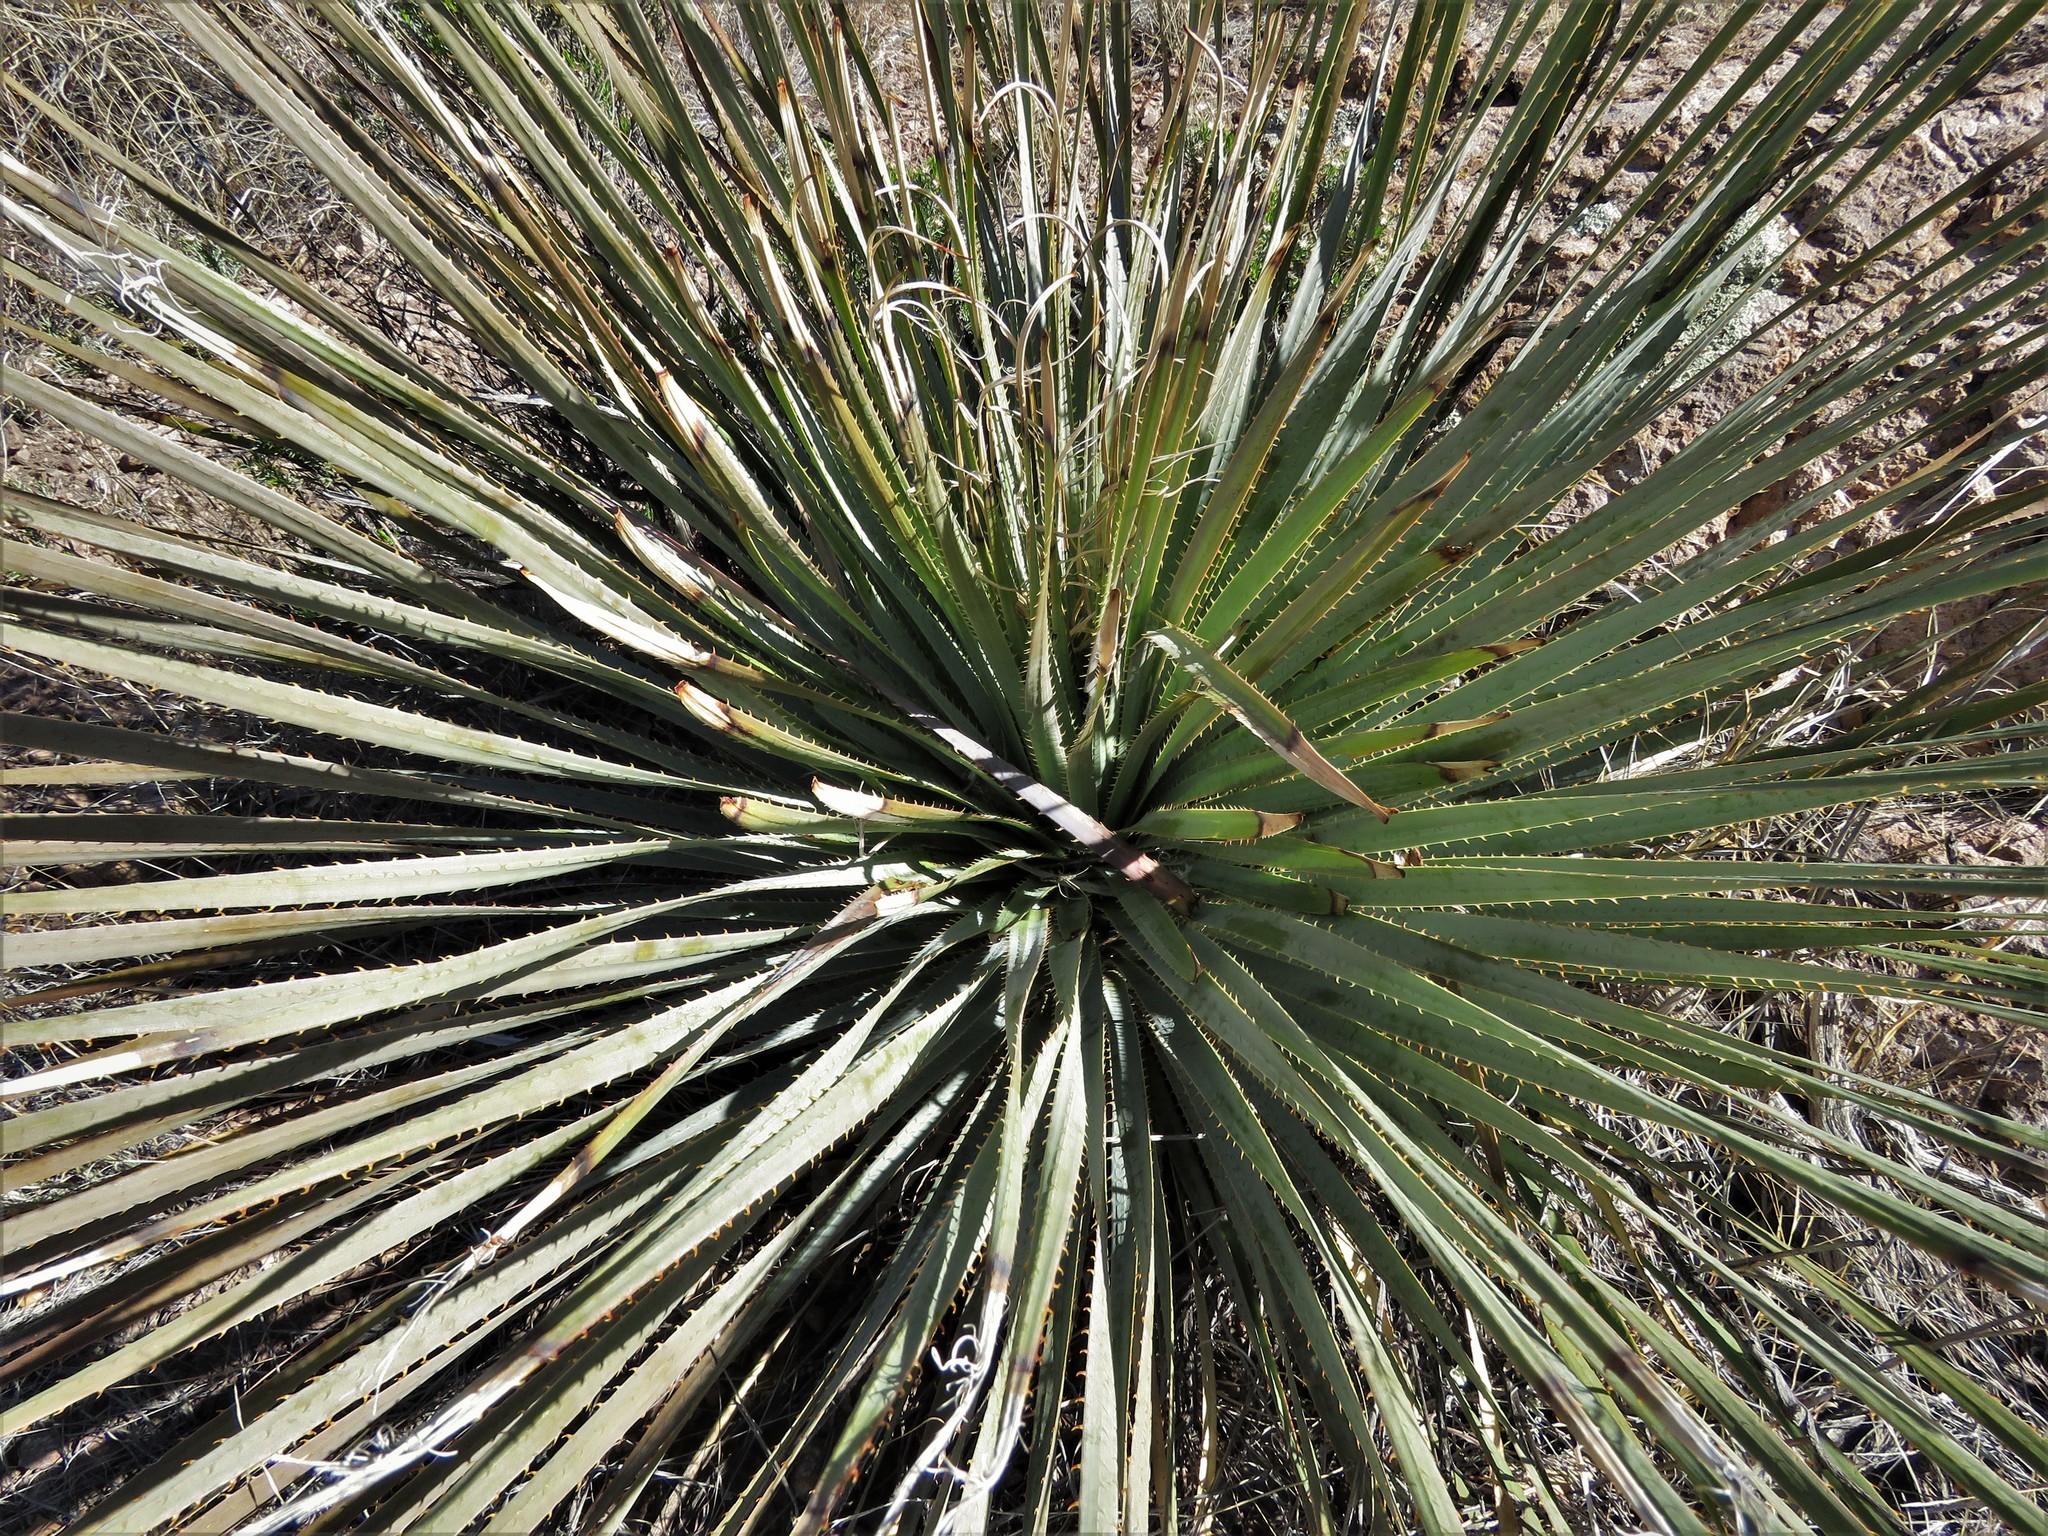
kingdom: Plantae
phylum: Tracheophyta
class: Liliopsida
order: Asparagales
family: Asparagaceae
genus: Dasylirion
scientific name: Dasylirion wheeleri
